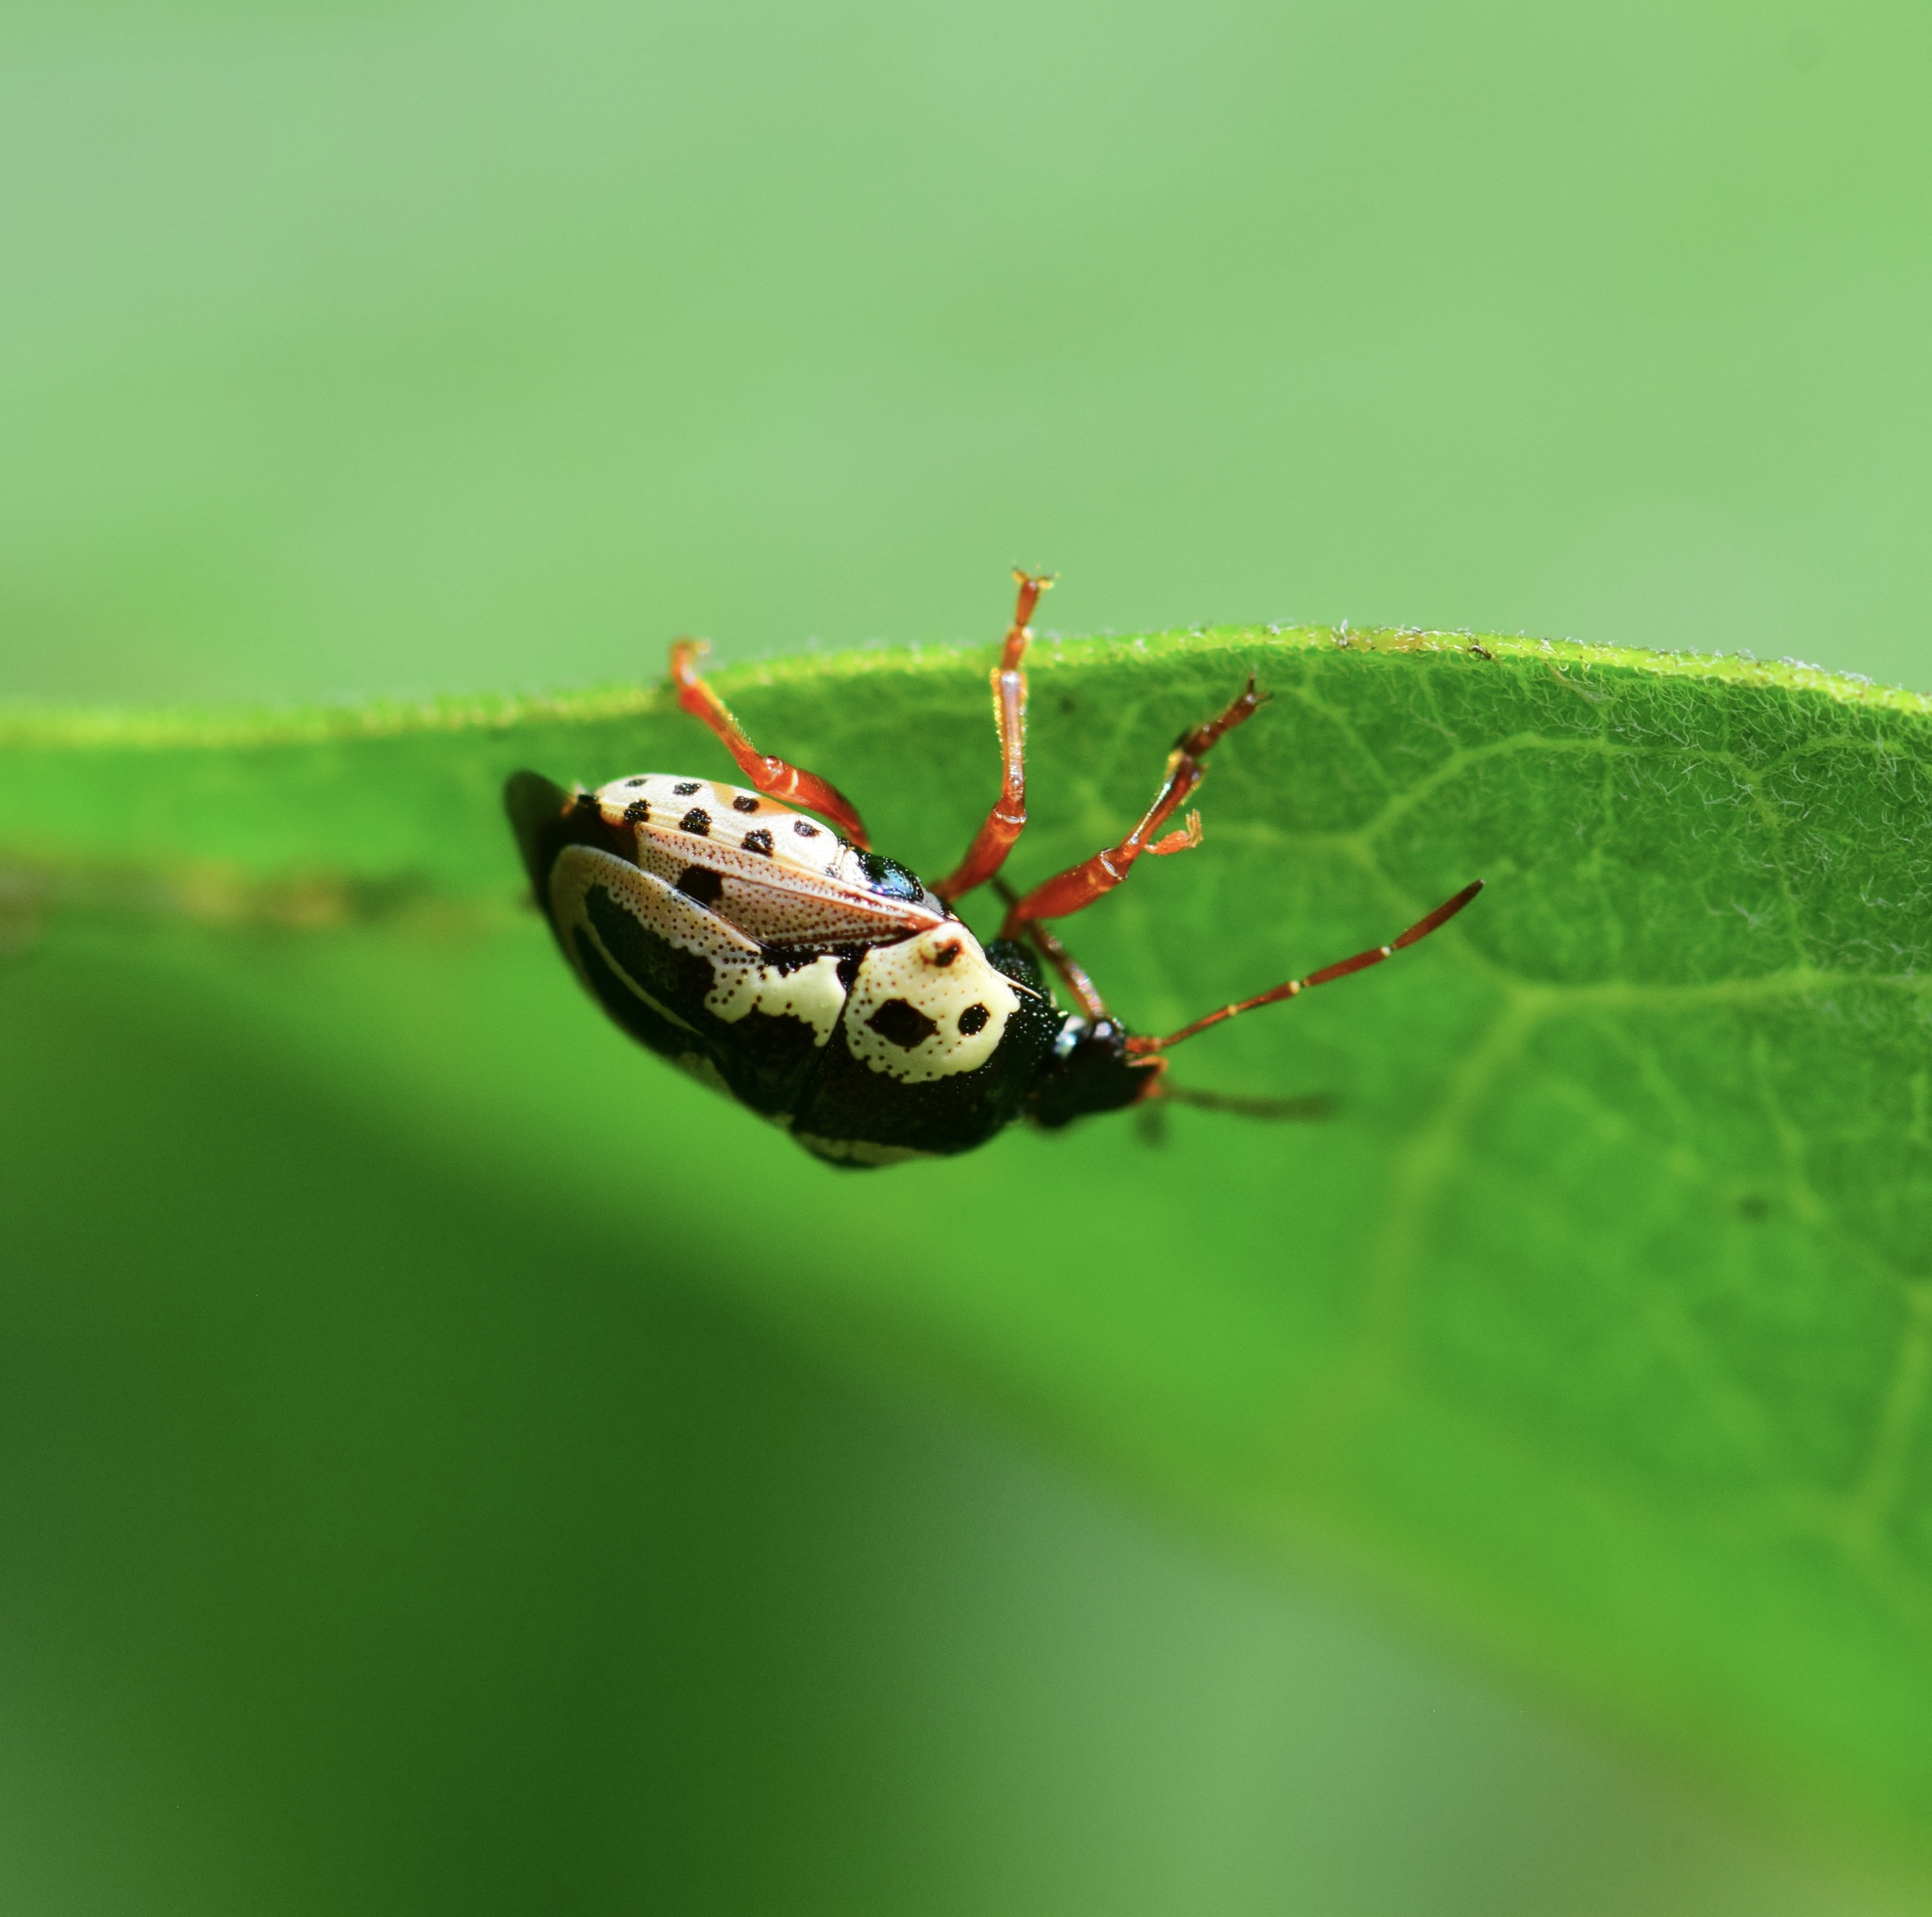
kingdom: Animalia
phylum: Arthropoda
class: Insecta
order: Hemiptera
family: Pentatomidae
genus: Stiretrus
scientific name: Stiretrus anchorago
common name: Anchor stink bug
